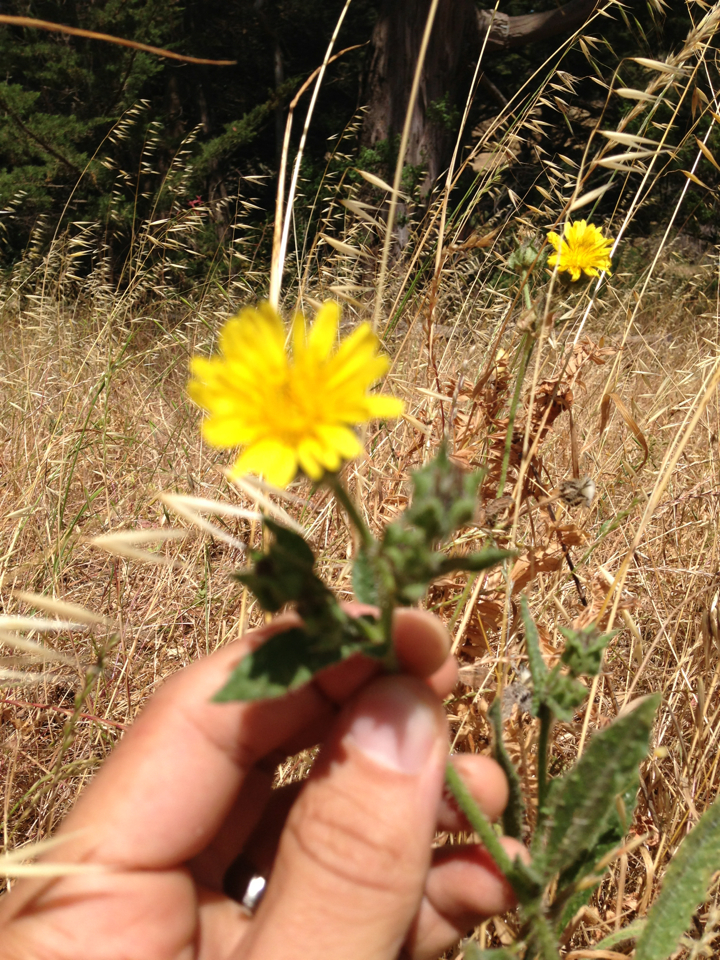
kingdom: Plantae
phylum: Tracheophyta
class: Magnoliopsida
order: Asterales
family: Asteraceae
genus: Helminthotheca
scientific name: Helminthotheca echioides
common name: Ox-tongue
